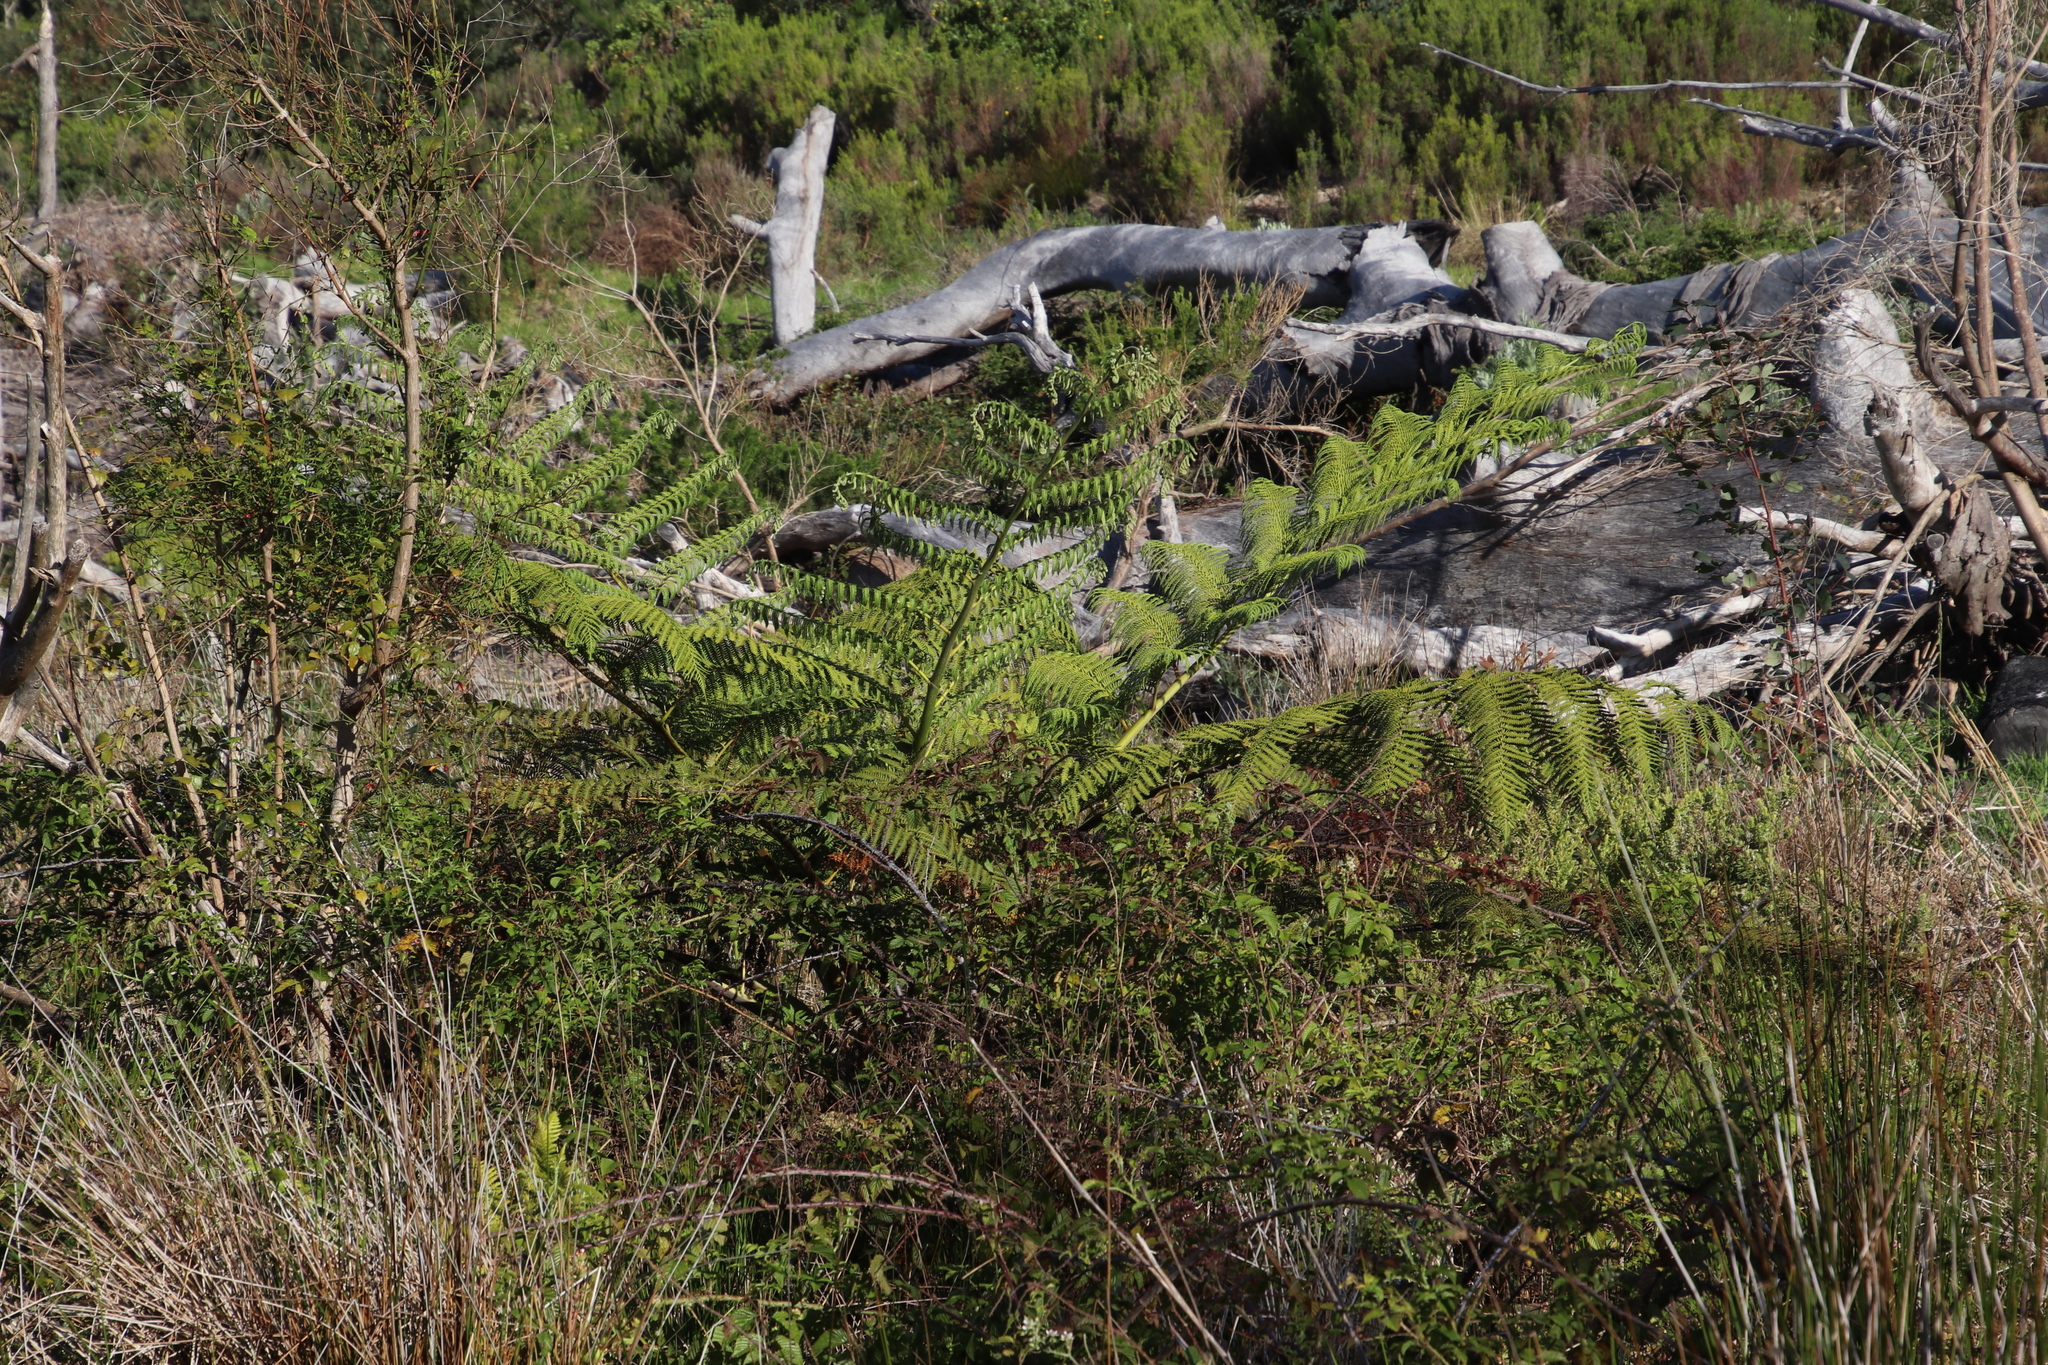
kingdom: Plantae
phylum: Tracheophyta
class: Polypodiopsida
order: Cyatheales
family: Cyatheaceae
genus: Sphaeropteris
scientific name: Sphaeropteris cooperi
